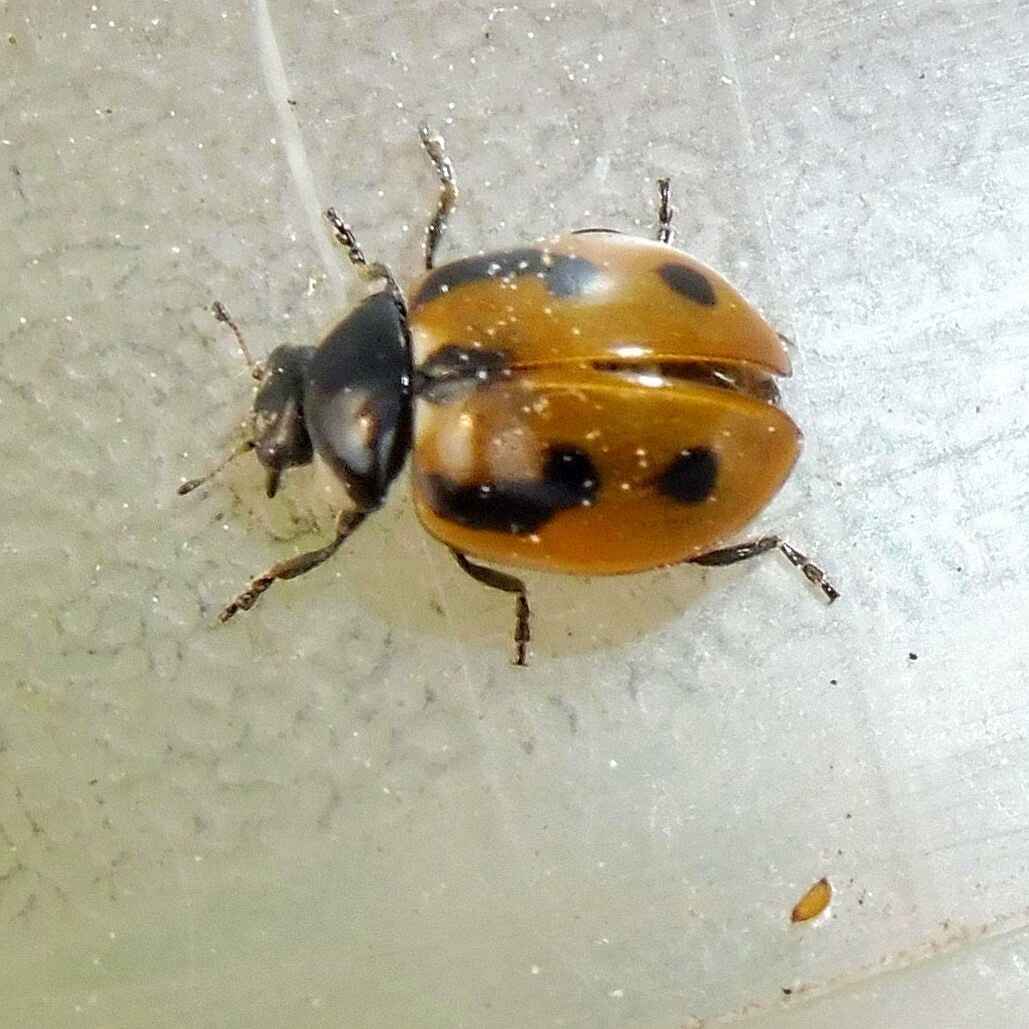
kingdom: Animalia
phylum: Arthropoda
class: Insecta
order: Coleoptera
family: Coccinellidae
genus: Coccinella
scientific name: Coccinella hieroglyphica
